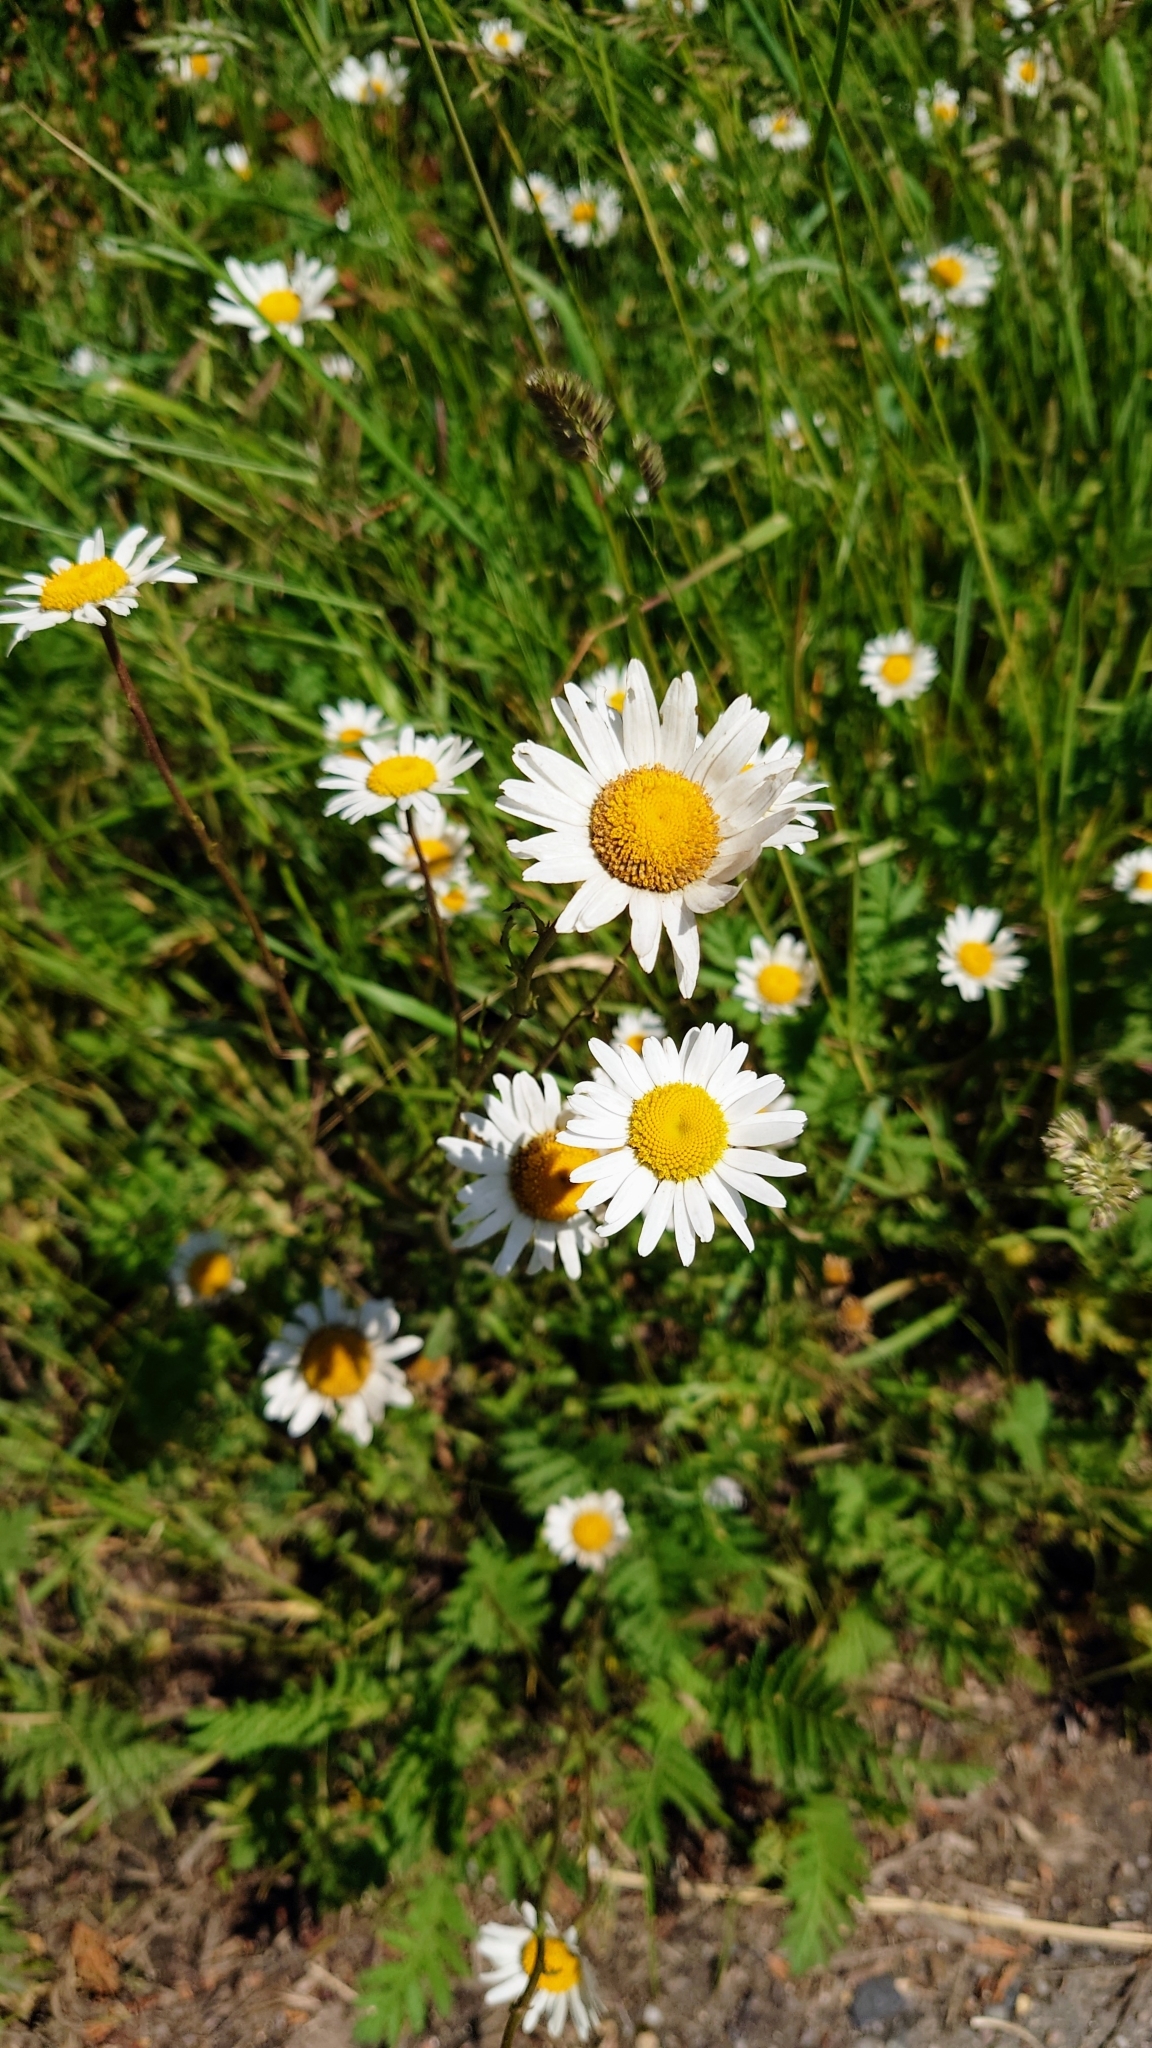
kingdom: Plantae
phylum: Tracheophyta
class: Magnoliopsida
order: Asterales
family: Asteraceae
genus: Leucanthemum
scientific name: Leucanthemum vulgare
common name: Oxeye daisy
